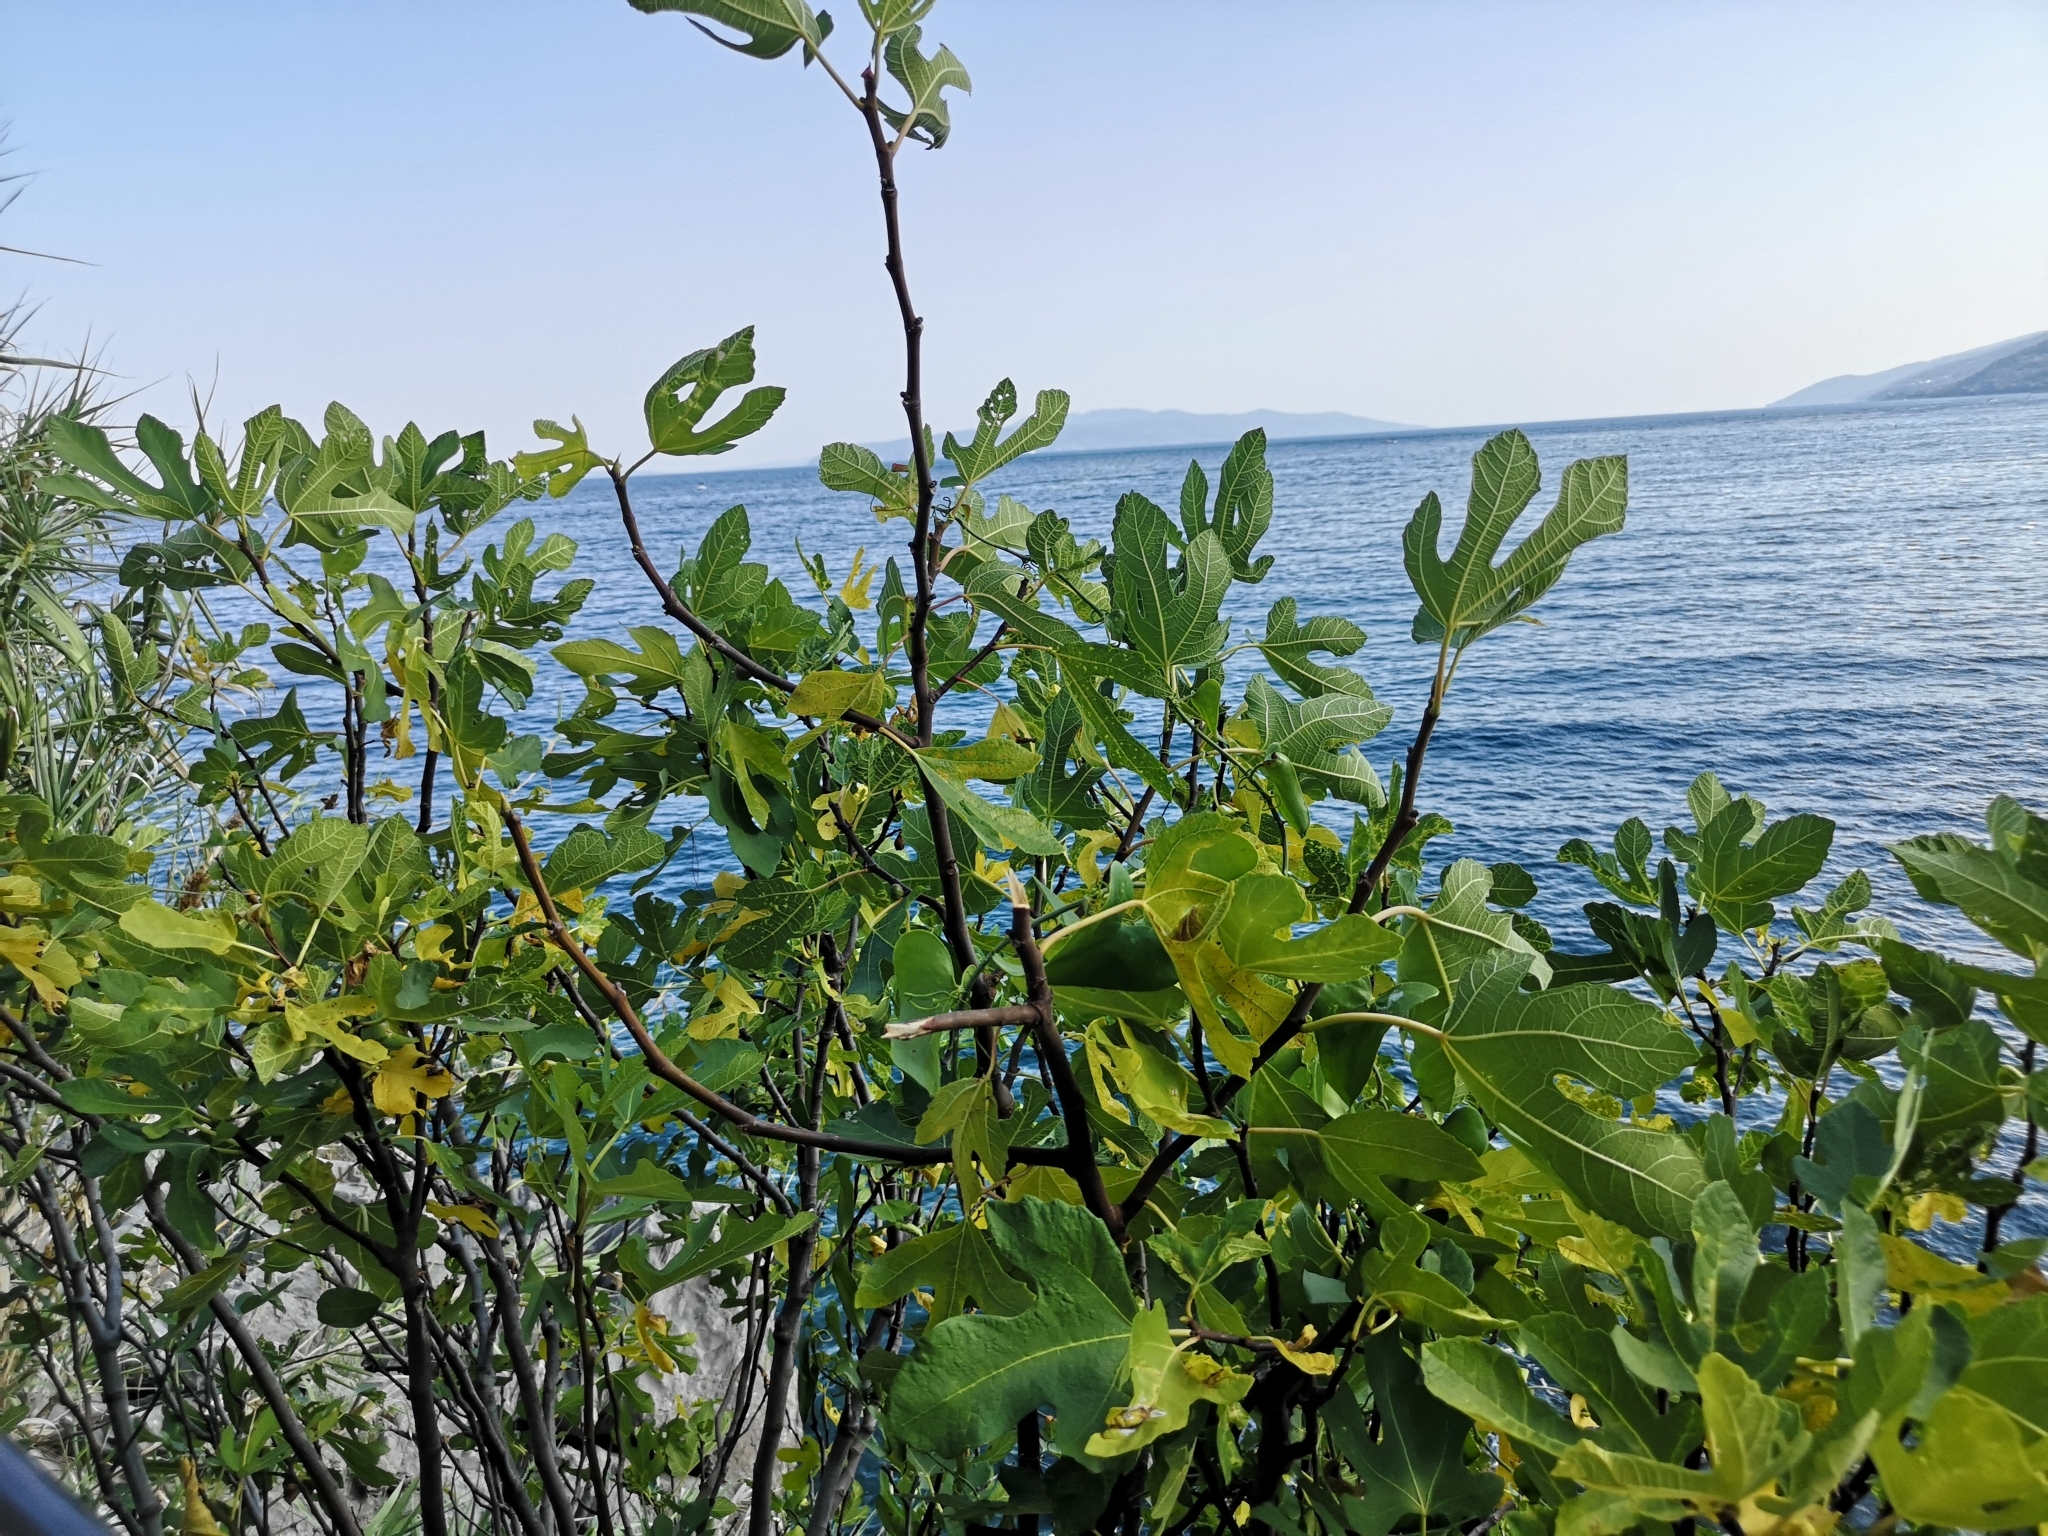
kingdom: Plantae
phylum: Tracheophyta
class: Magnoliopsida
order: Rosales
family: Moraceae
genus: Ficus
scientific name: Ficus carica
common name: Fig
